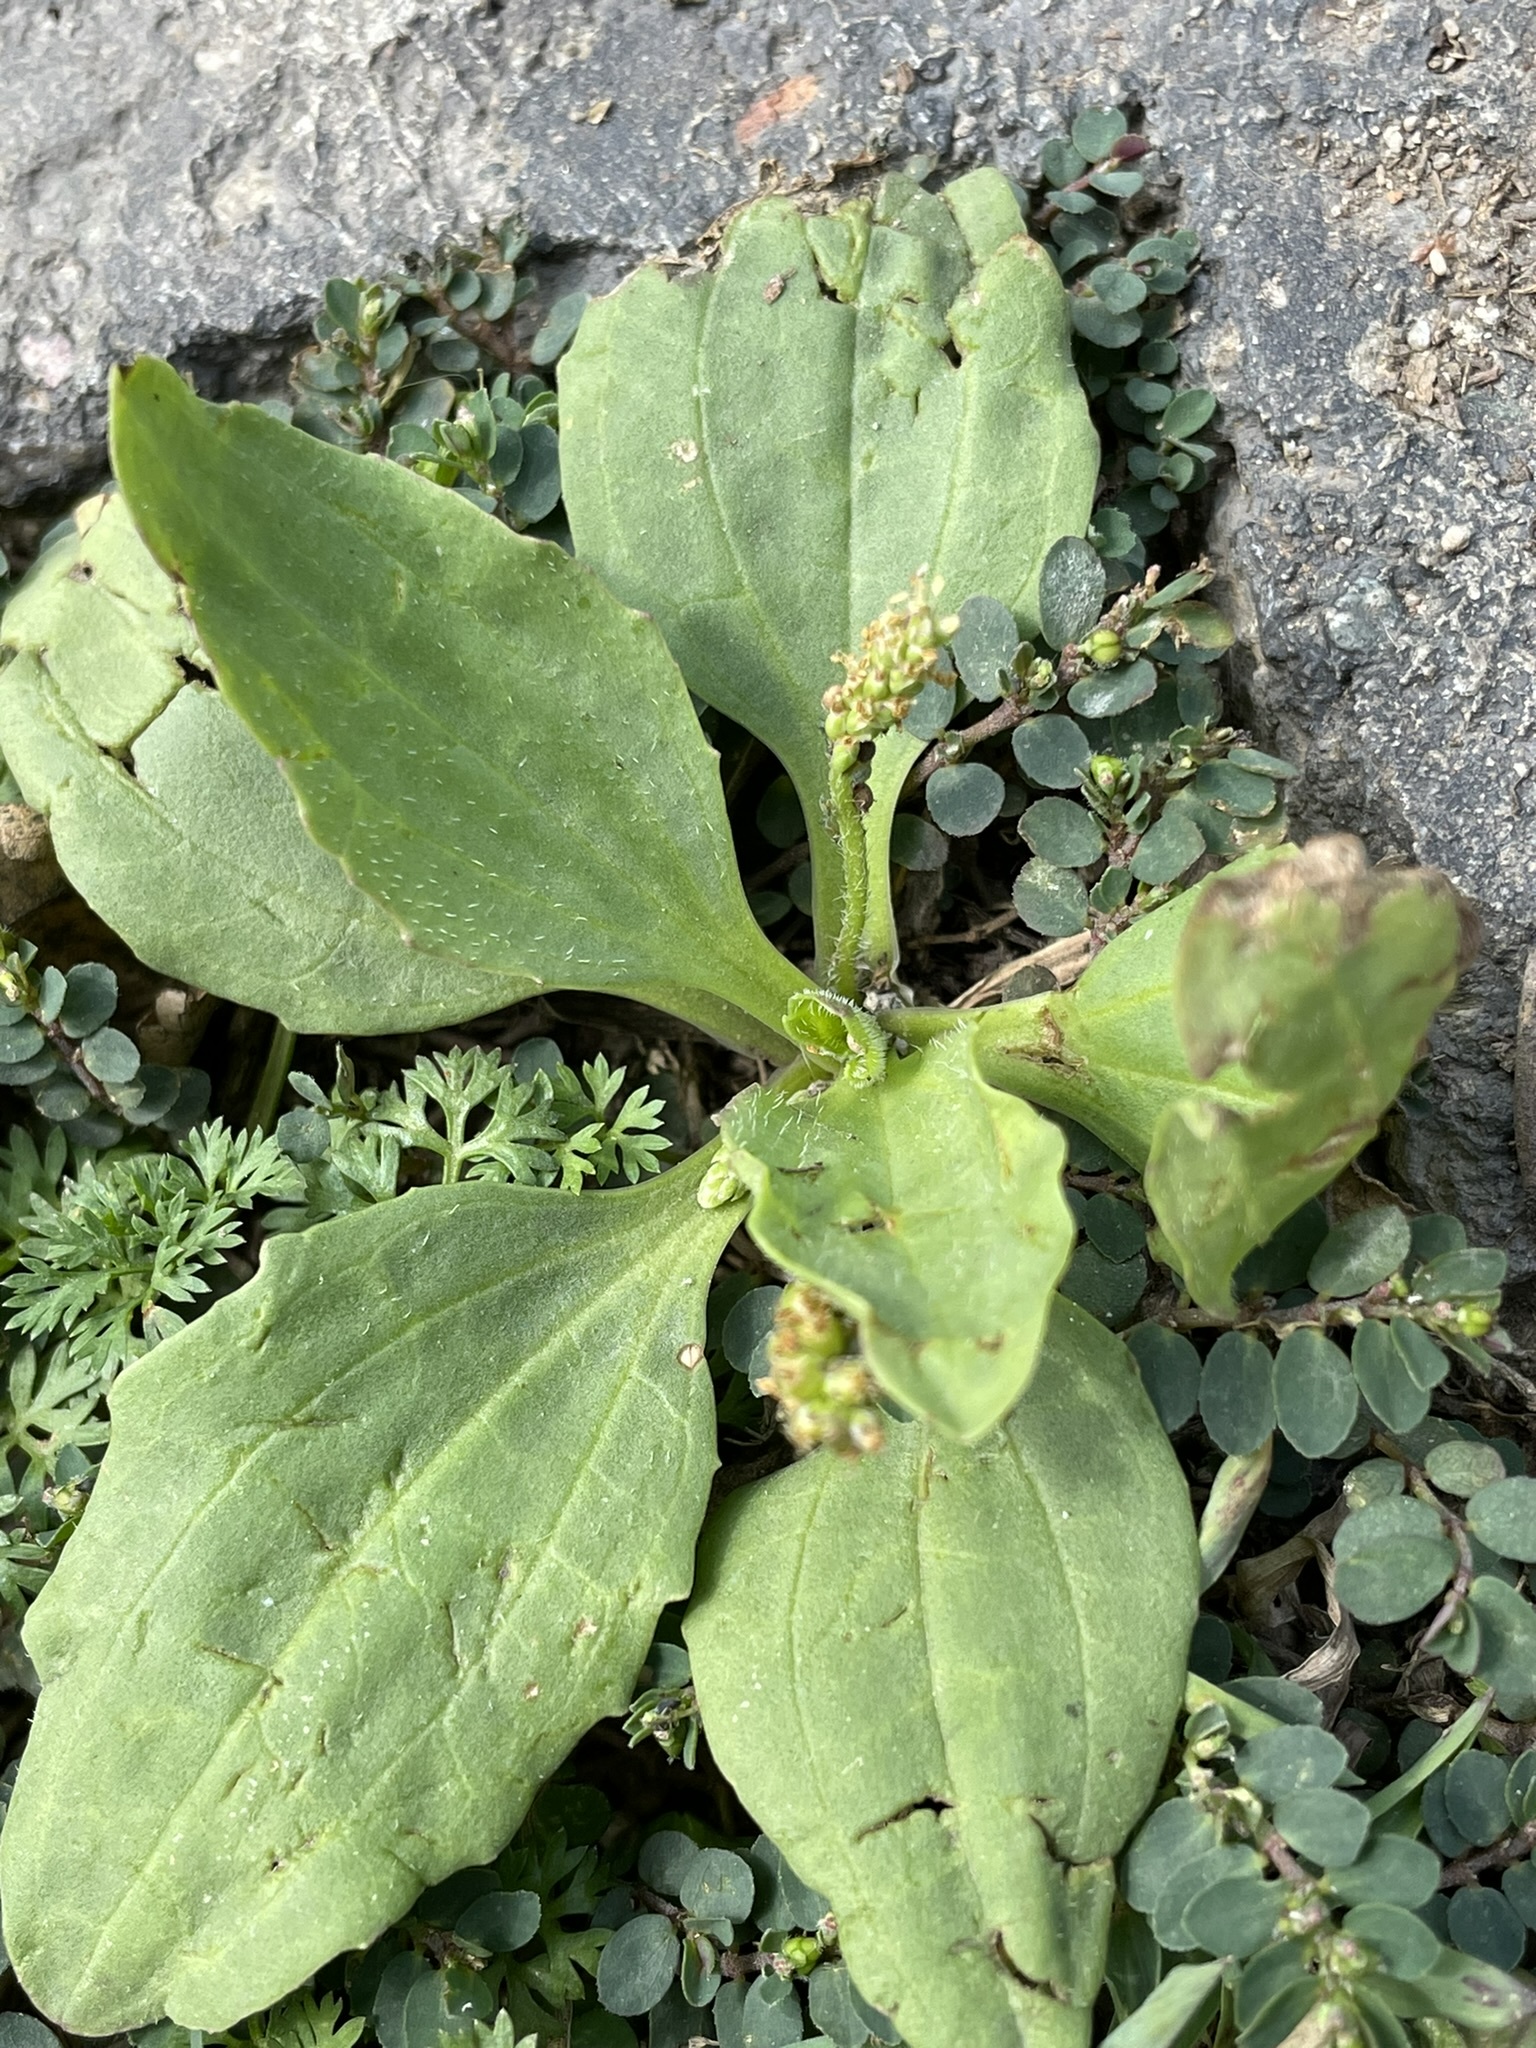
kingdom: Plantae
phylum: Tracheophyta
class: Magnoliopsida
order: Lamiales
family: Plantaginaceae
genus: Plantago
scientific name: Plantago major
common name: Common plantain
